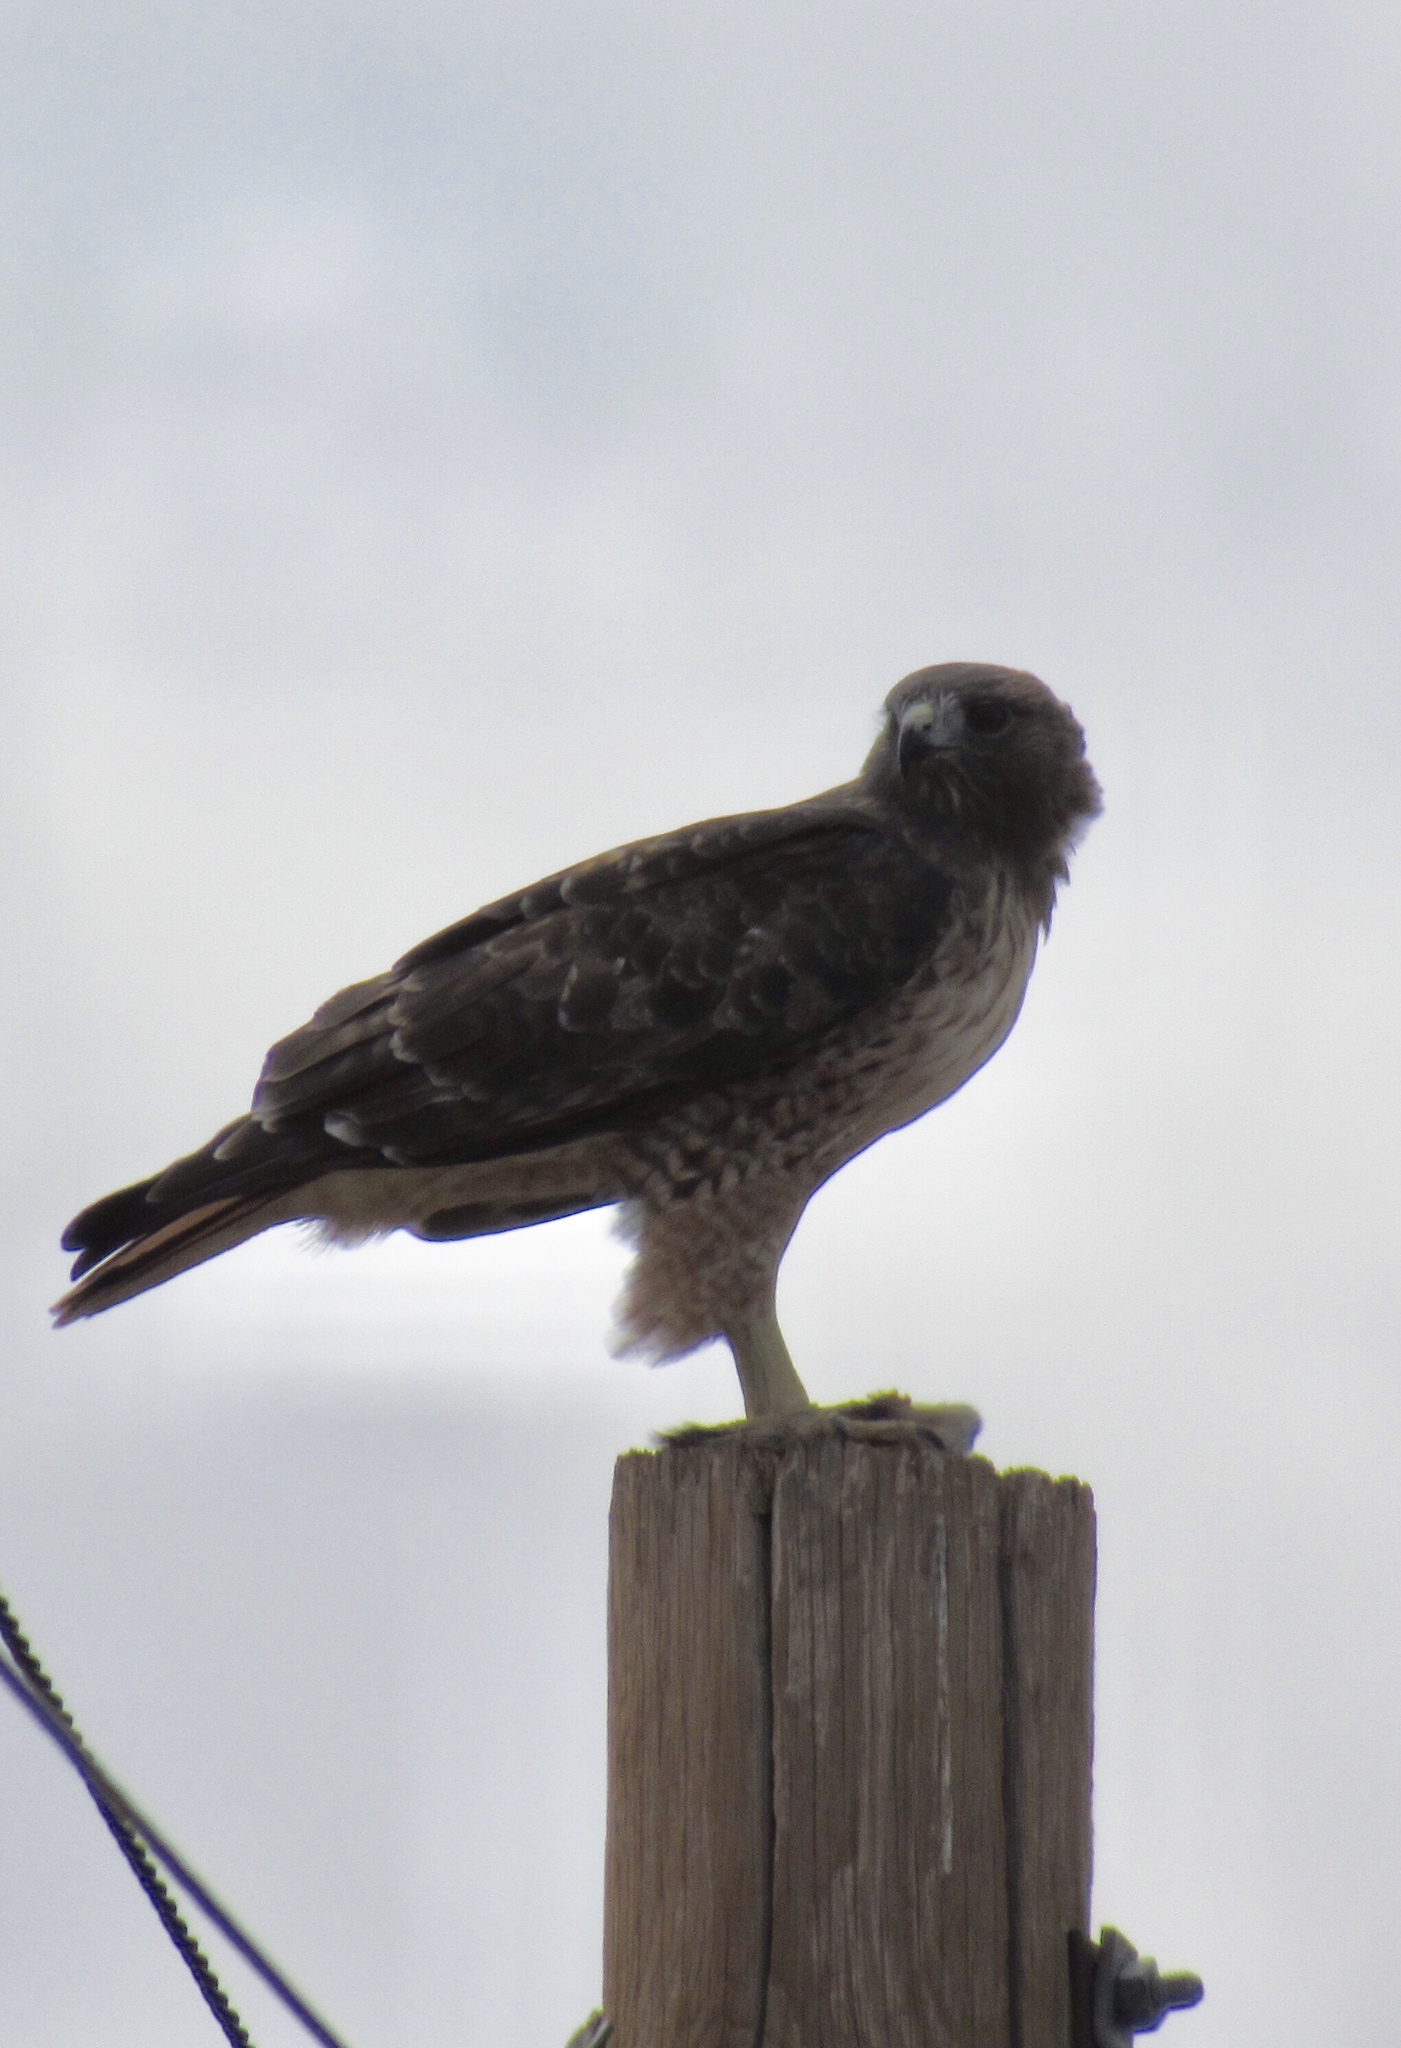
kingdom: Animalia
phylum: Chordata
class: Aves
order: Accipitriformes
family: Accipitridae
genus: Buteo
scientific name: Buteo jamaicensis
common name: Red-tailed hawk
